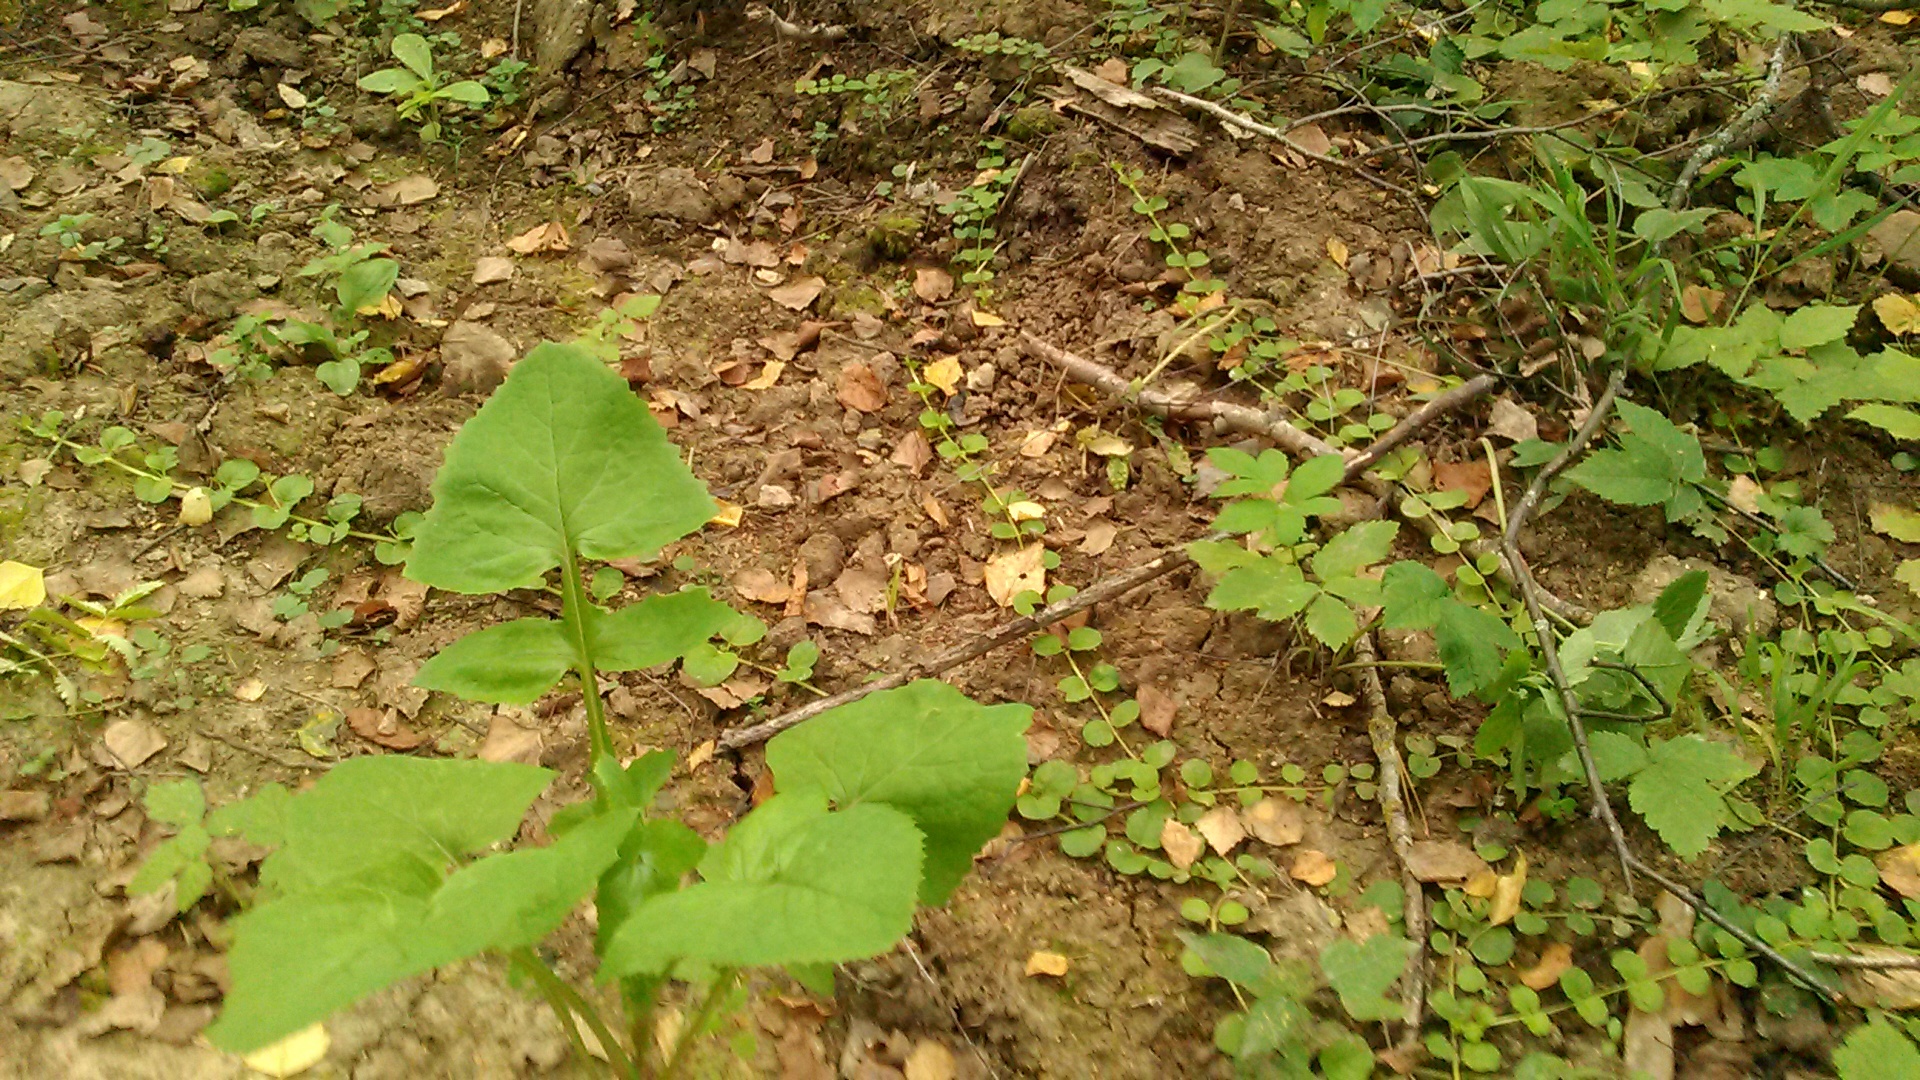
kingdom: Plantae
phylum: Tracheophyta
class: Magnoliopsida
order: Asterales
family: Asteraceae
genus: Sonchus
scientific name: Sonchus oleraceus
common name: Common sowthistle
